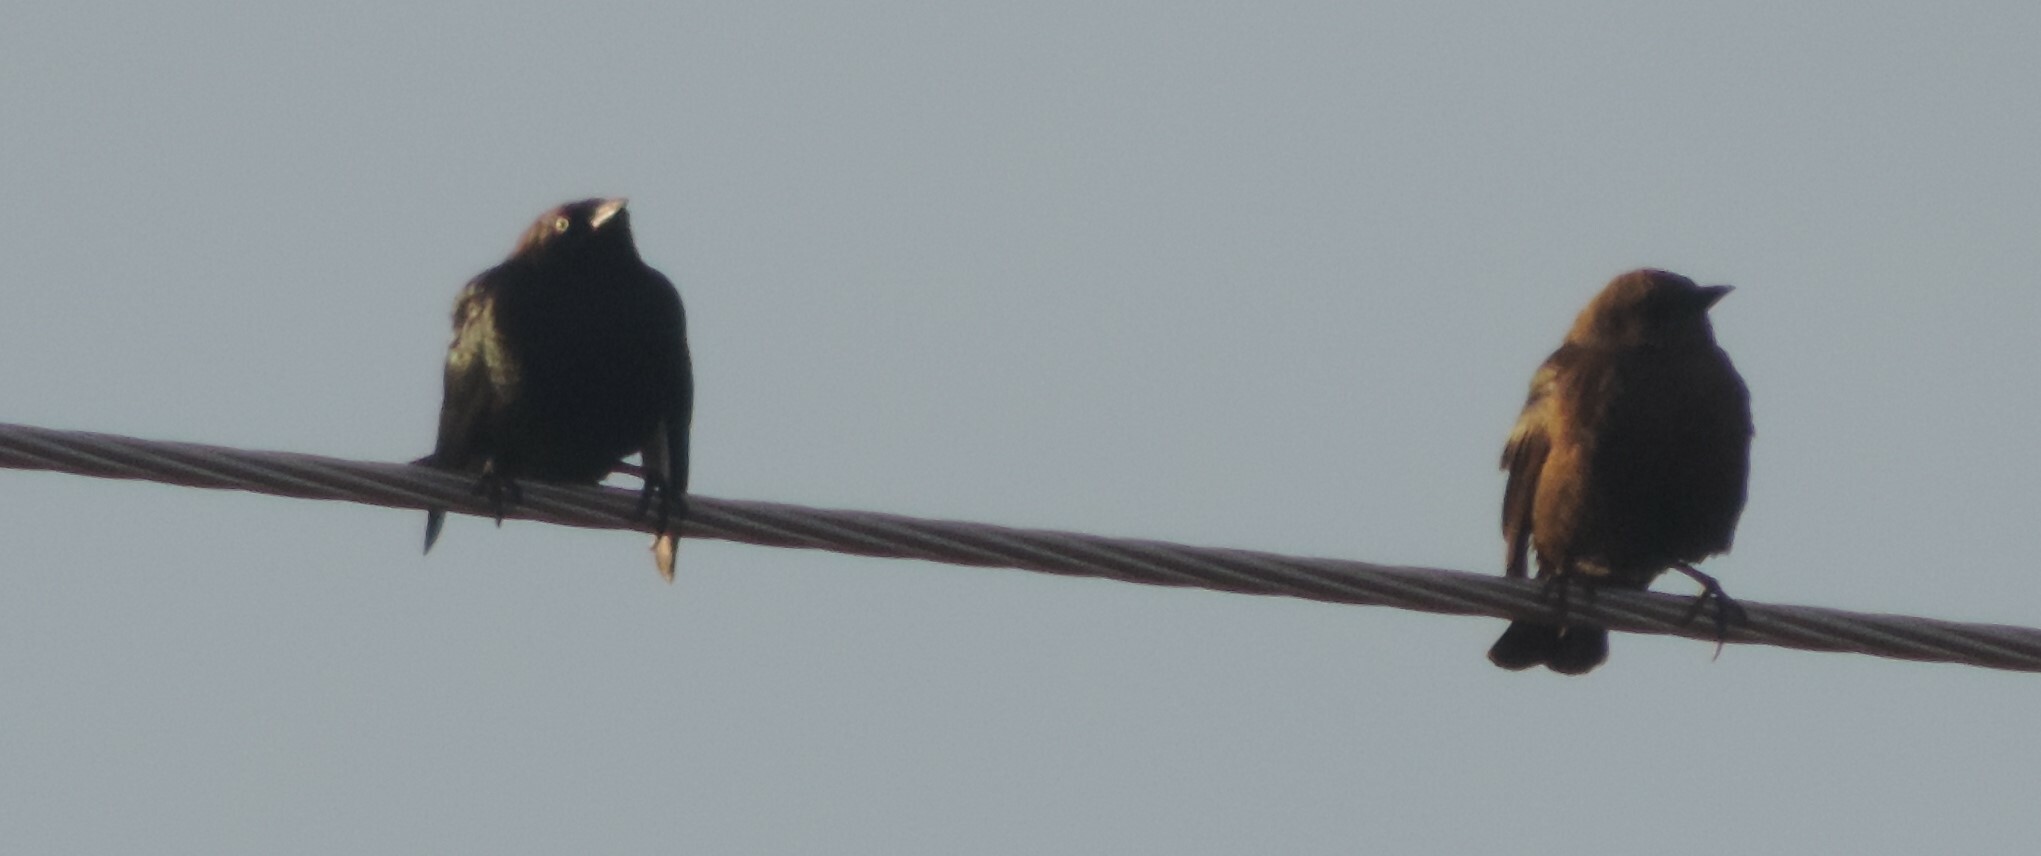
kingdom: Animalia
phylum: Chordata
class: Aves
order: Passeriformes
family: Icteridae
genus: Euphagus
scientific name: Euphagus cyanocephalus
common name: Brewer's blackbird
